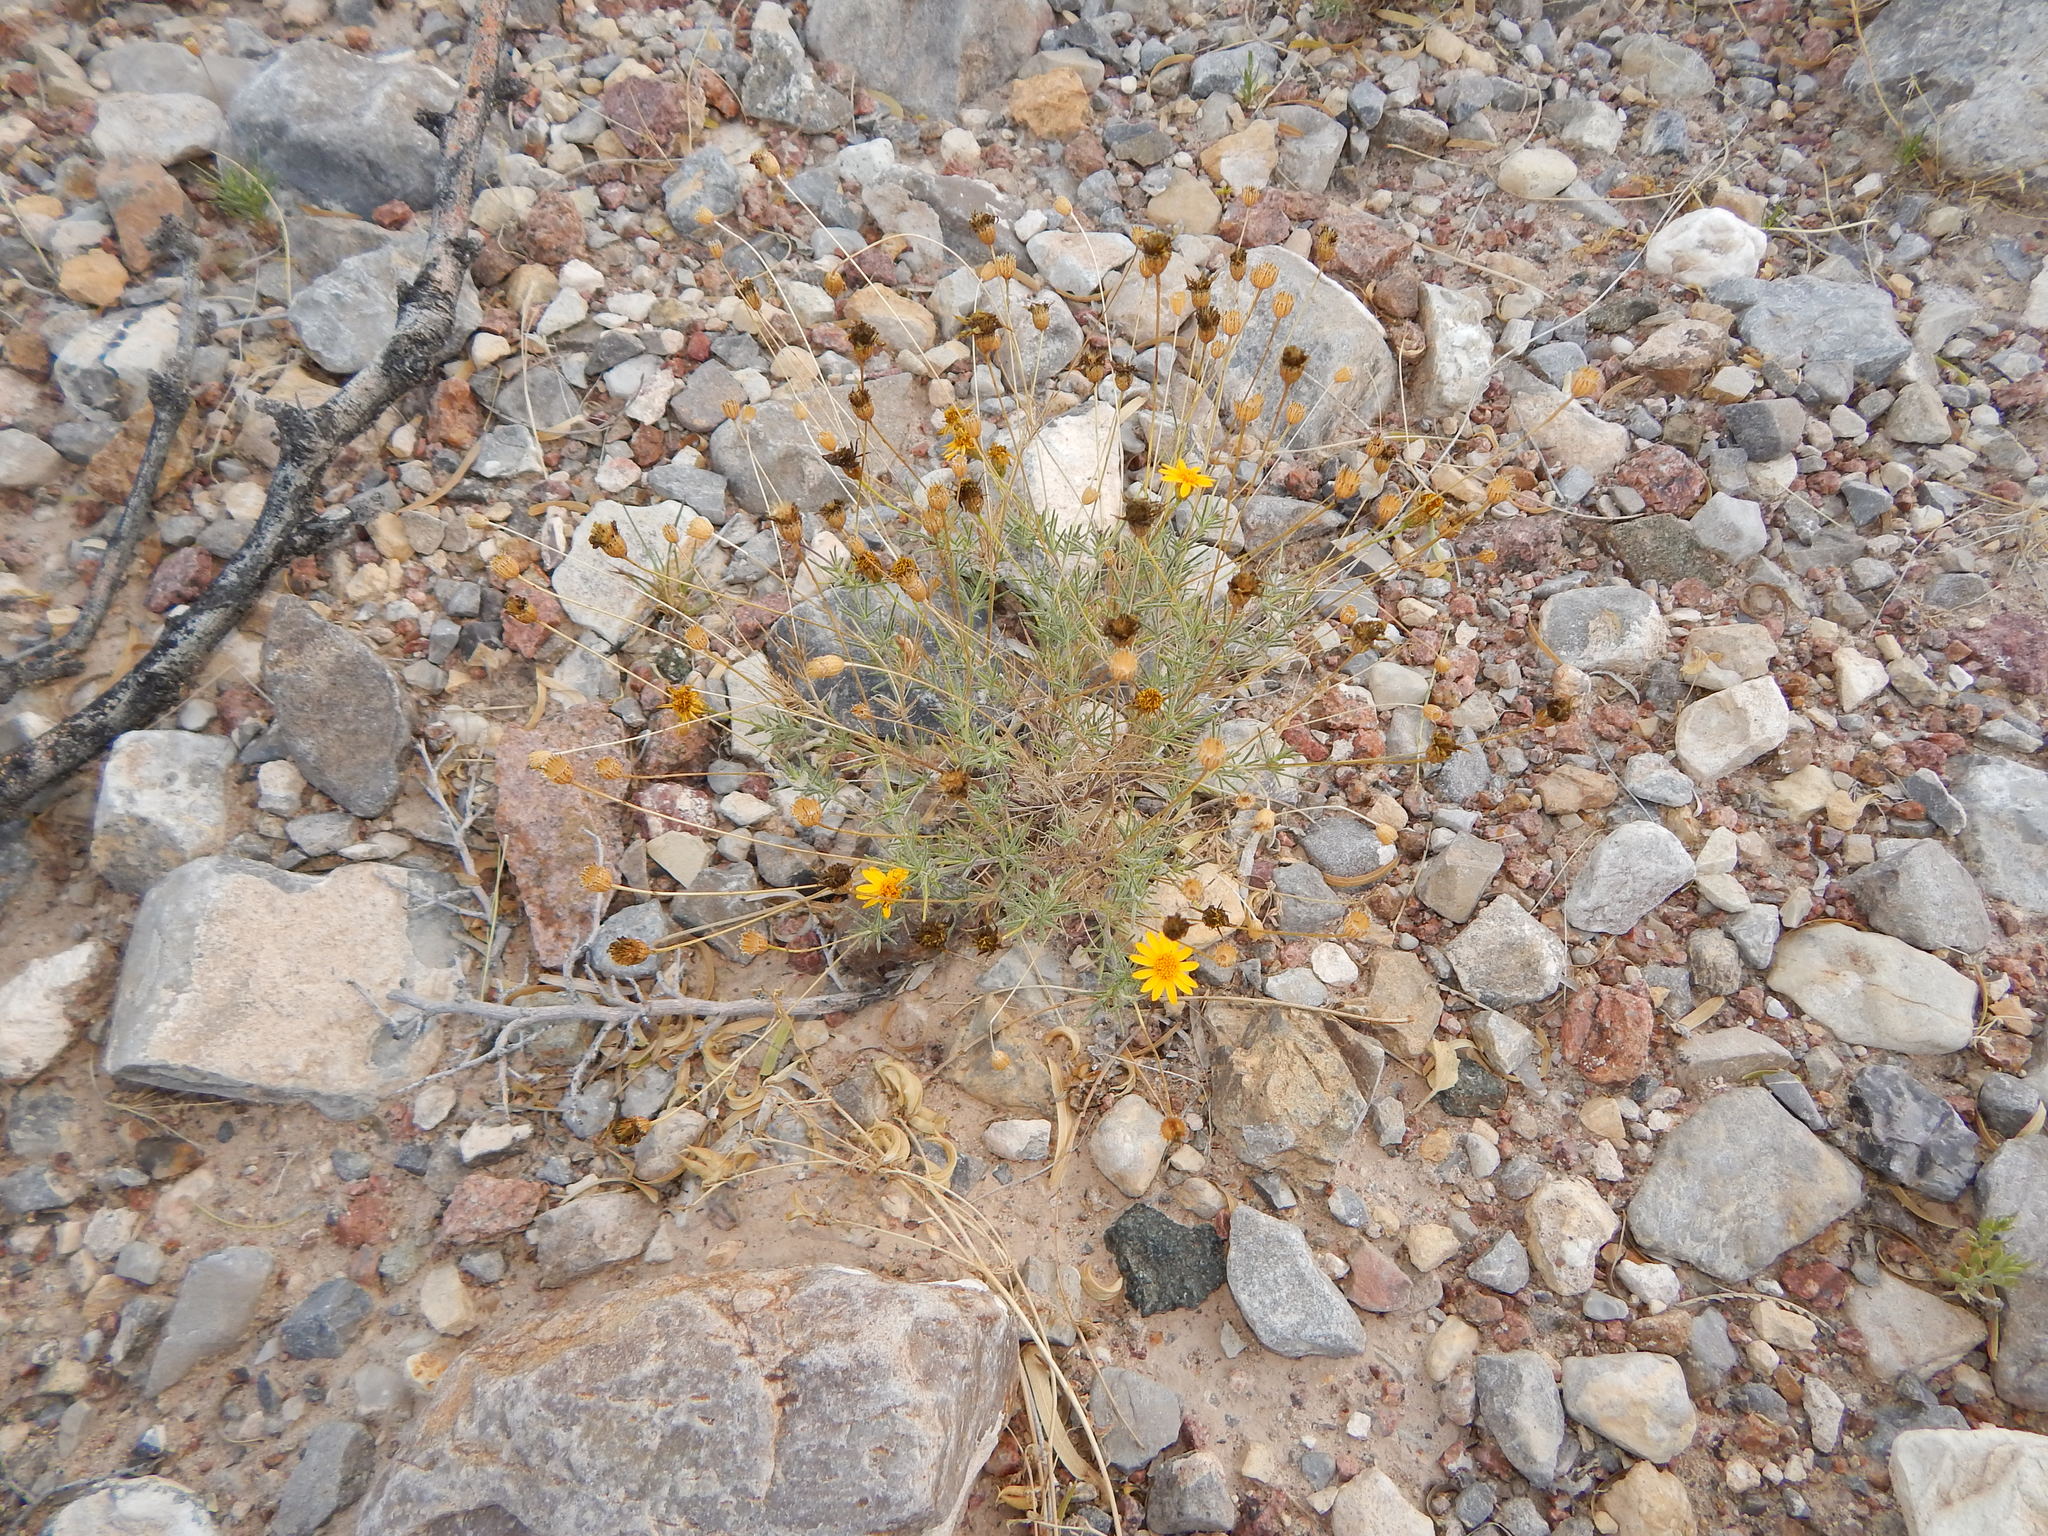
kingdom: Plantae
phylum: Tracheophyta
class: Magnoliopsida
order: Asterales
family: Asteraceae
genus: Thymophylla
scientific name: Thymophylla pentachaeta
